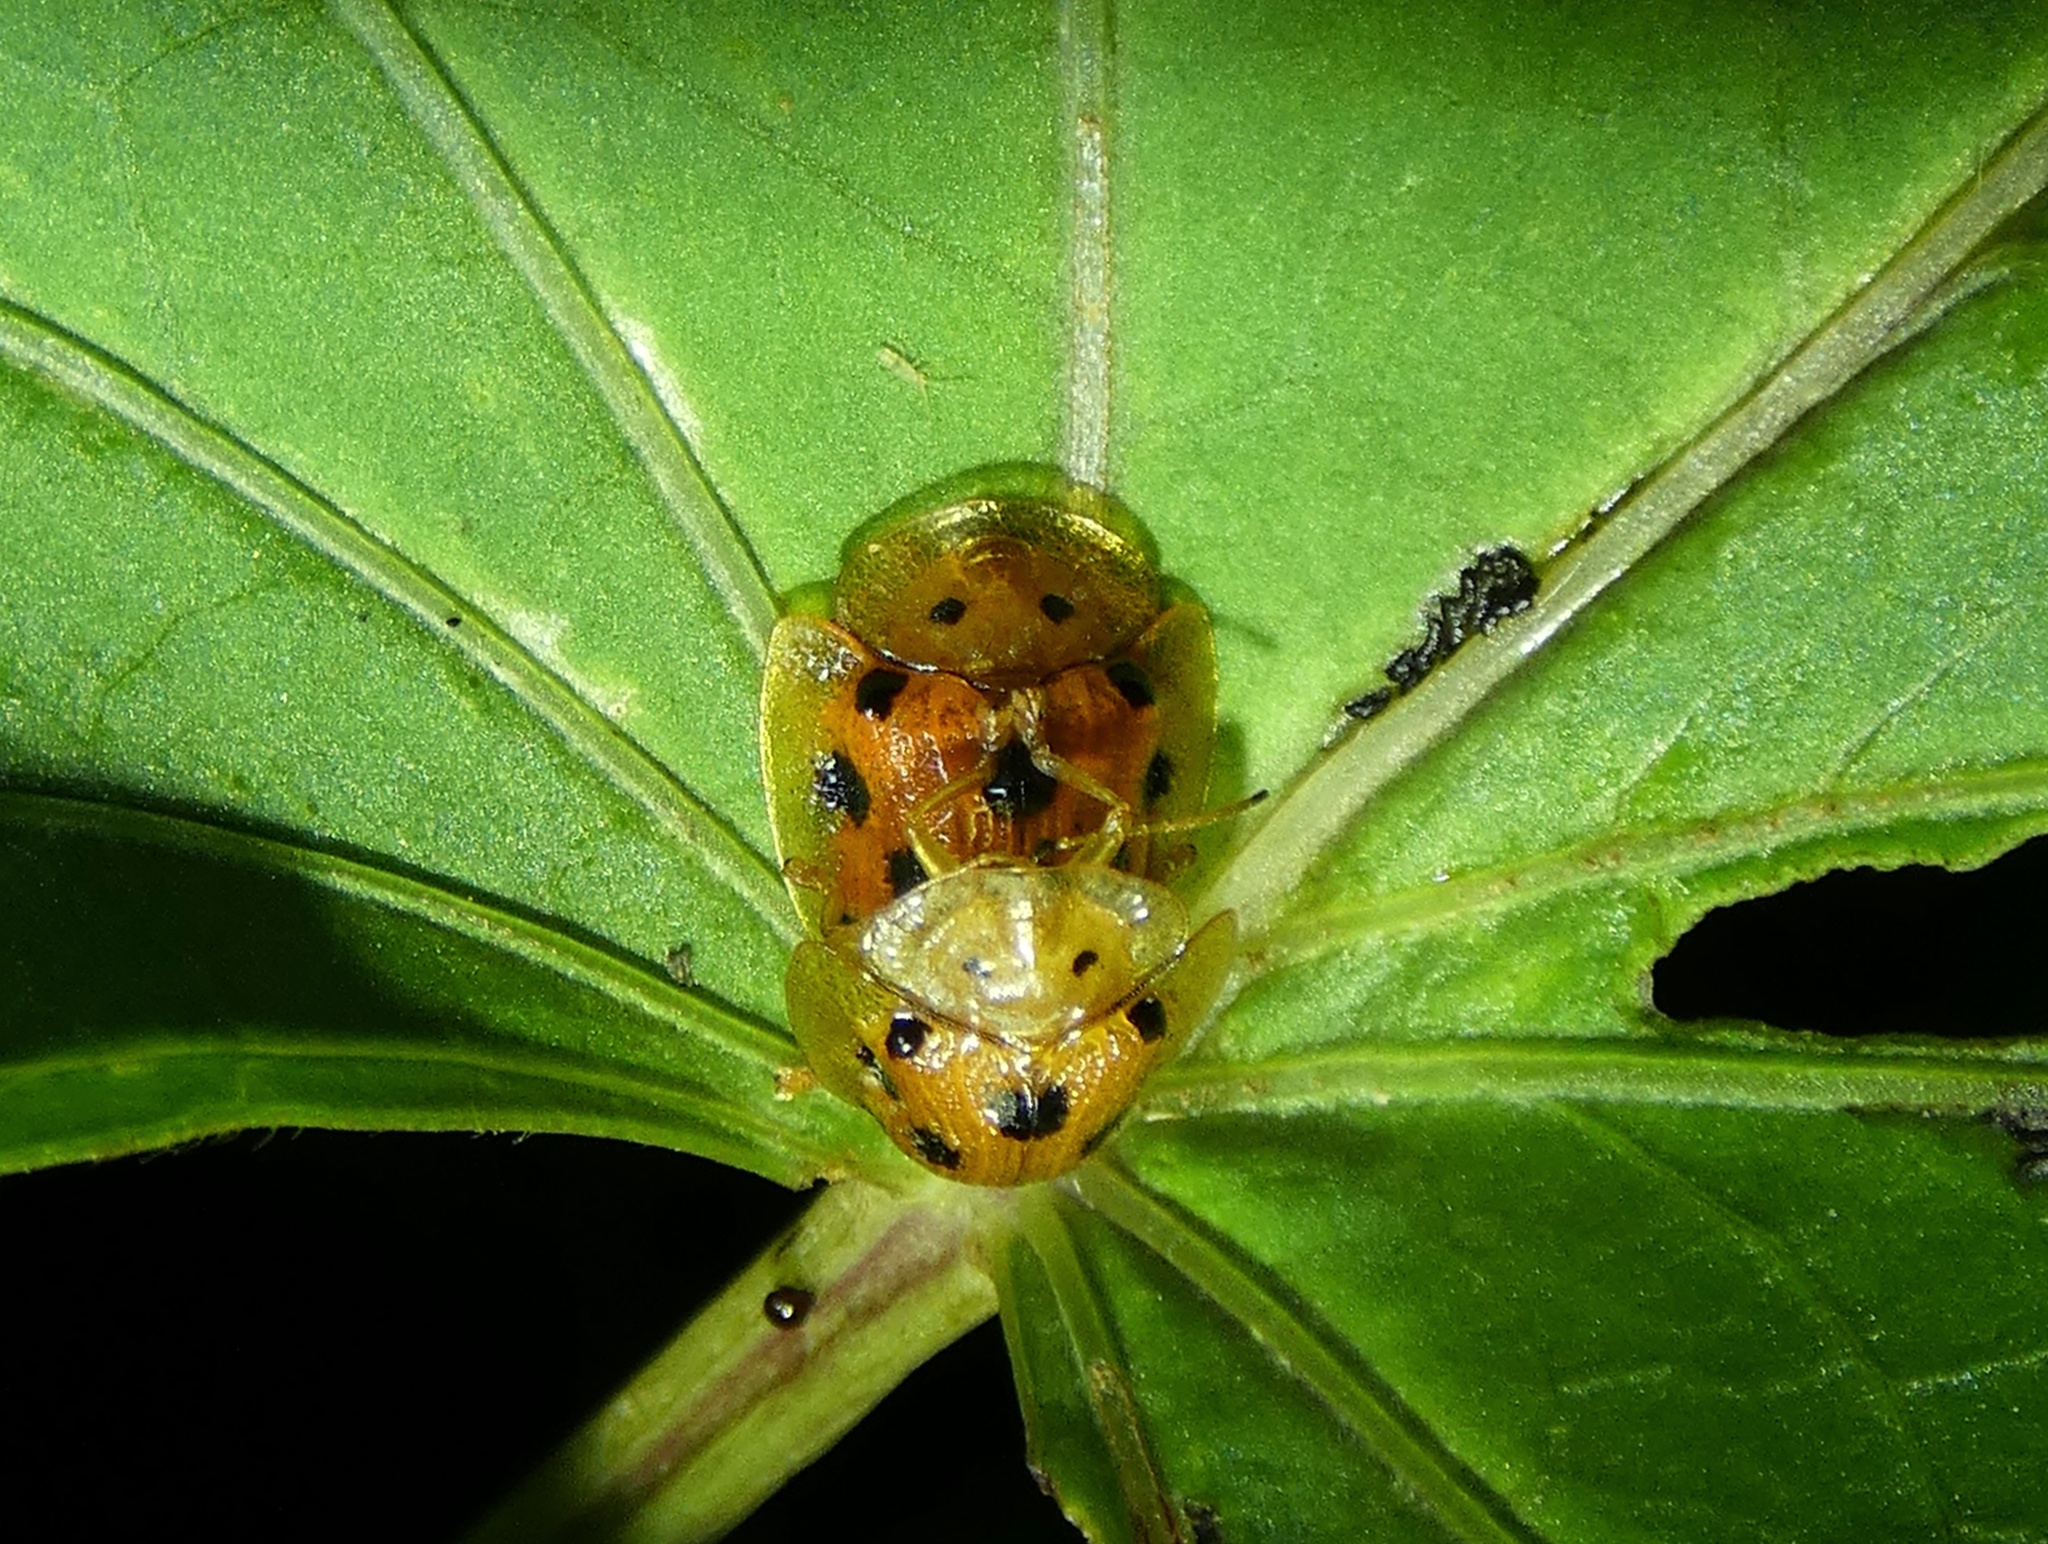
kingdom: Animalia
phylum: Arthropoda
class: Insecta
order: Coleoptera
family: Chrysomelidae
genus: Laccoptera
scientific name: Laccoptera tredecimguttata
